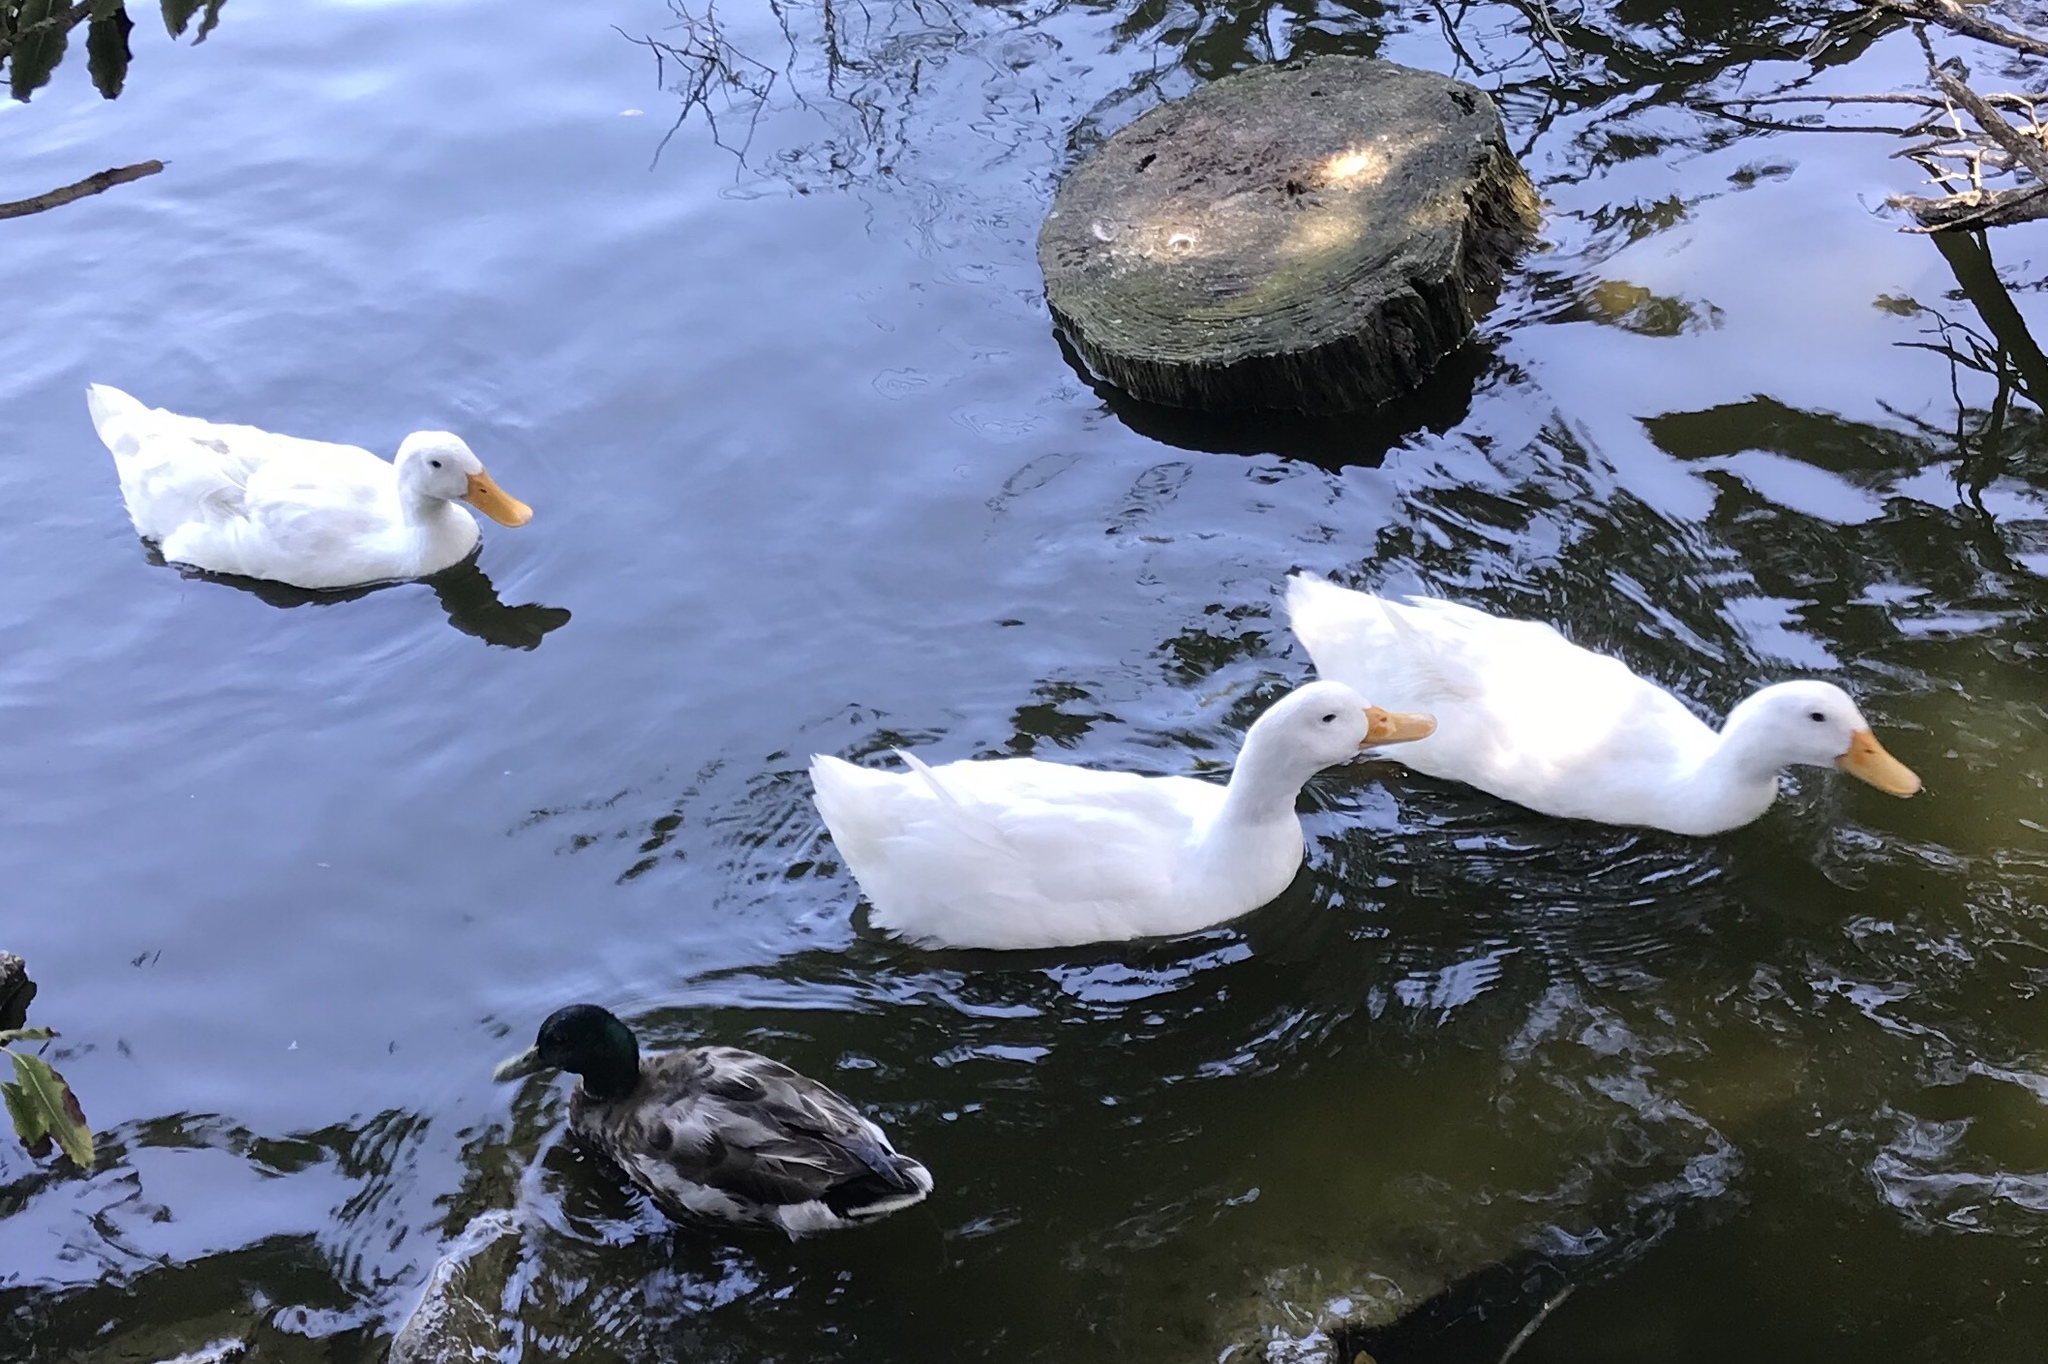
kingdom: Animalia
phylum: Chordata
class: Aves
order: Anseriformes
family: Anatidae
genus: Anas
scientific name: Anas platyrhynchos
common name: Mallard
